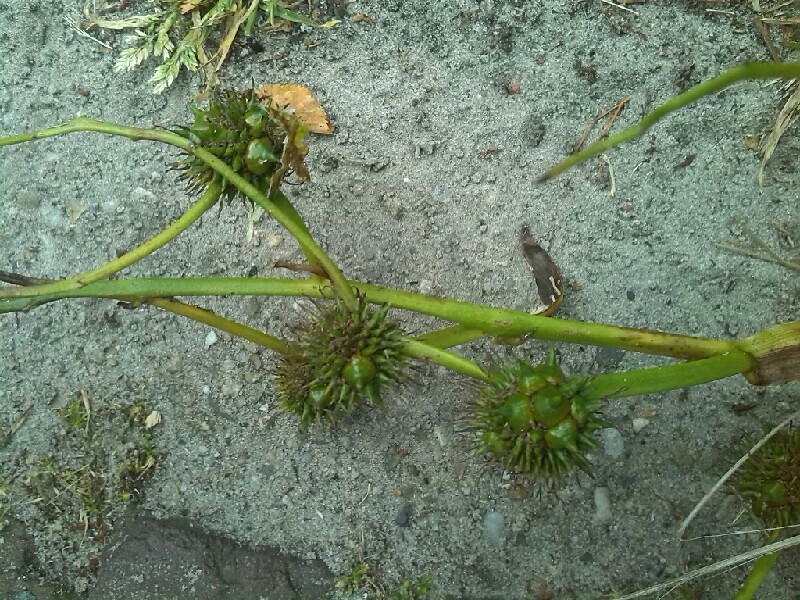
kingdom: Plantae
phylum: Tracheophyta
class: Liliopsida
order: Poales
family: Typhaceae
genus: Sparganium
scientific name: Sparganium erectum
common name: Branched bur-reed
